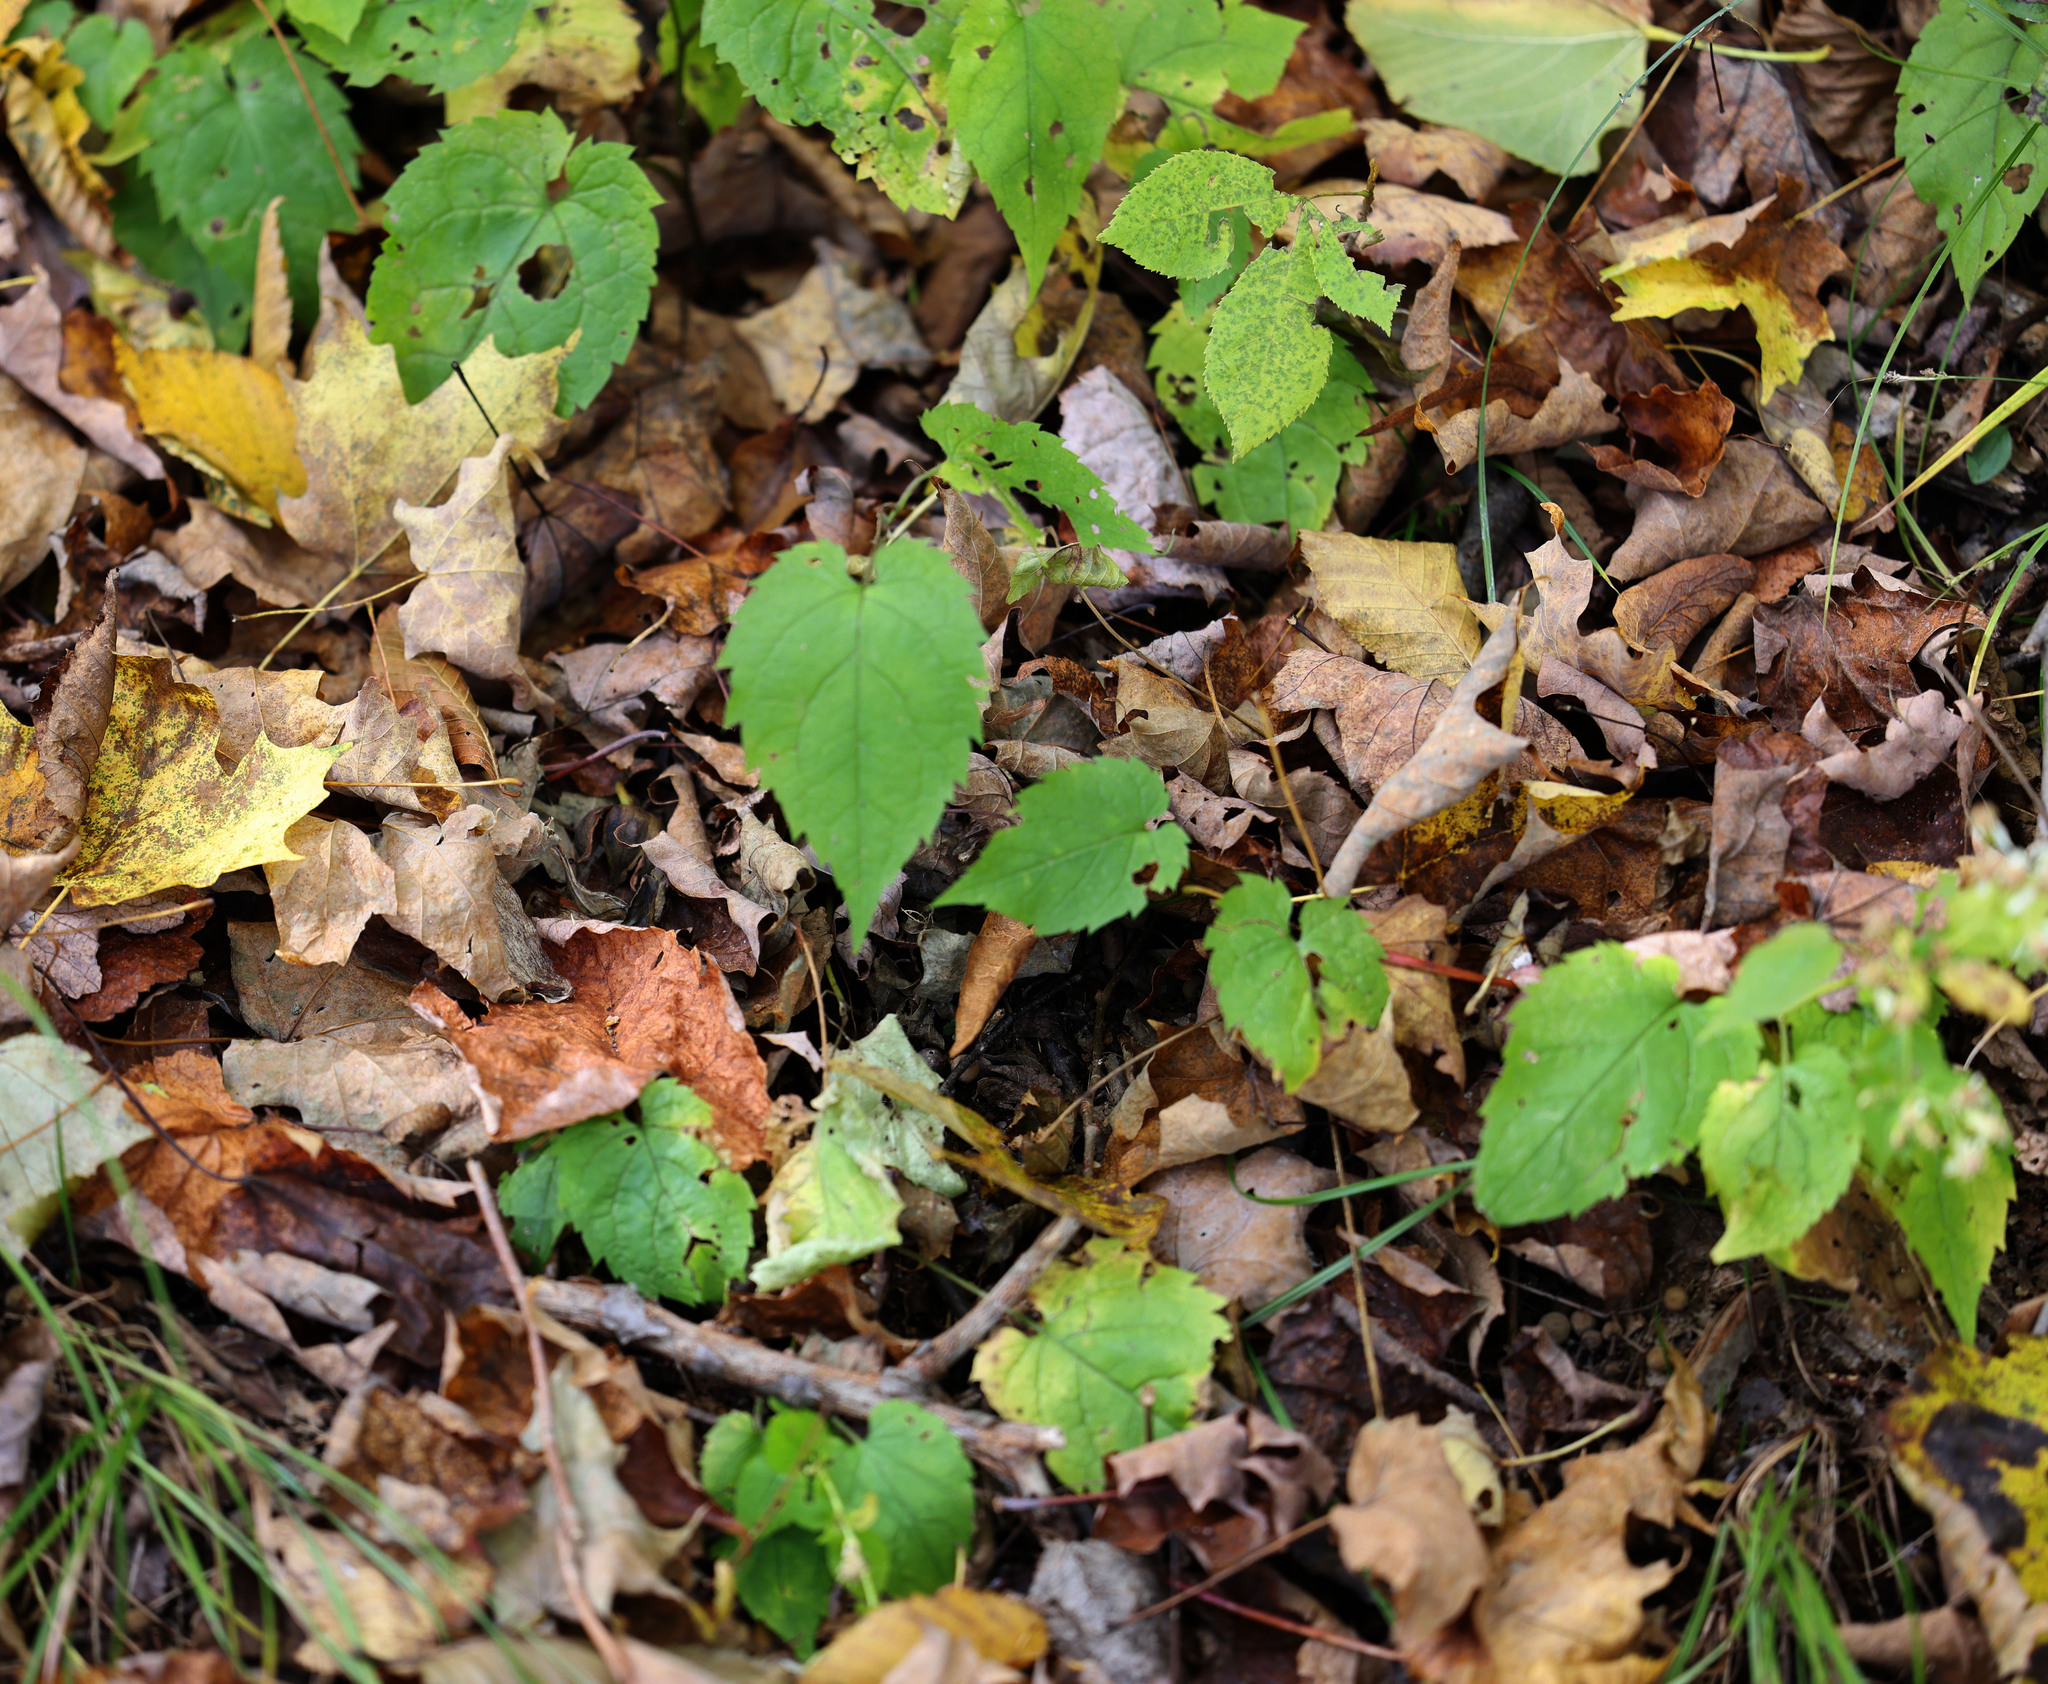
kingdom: Plantae
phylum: Tracheophyta
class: Magnoliopsida
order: Asterales
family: Asteraceae
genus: Eurybia
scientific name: Eurybia divaricata
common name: White wood aster
